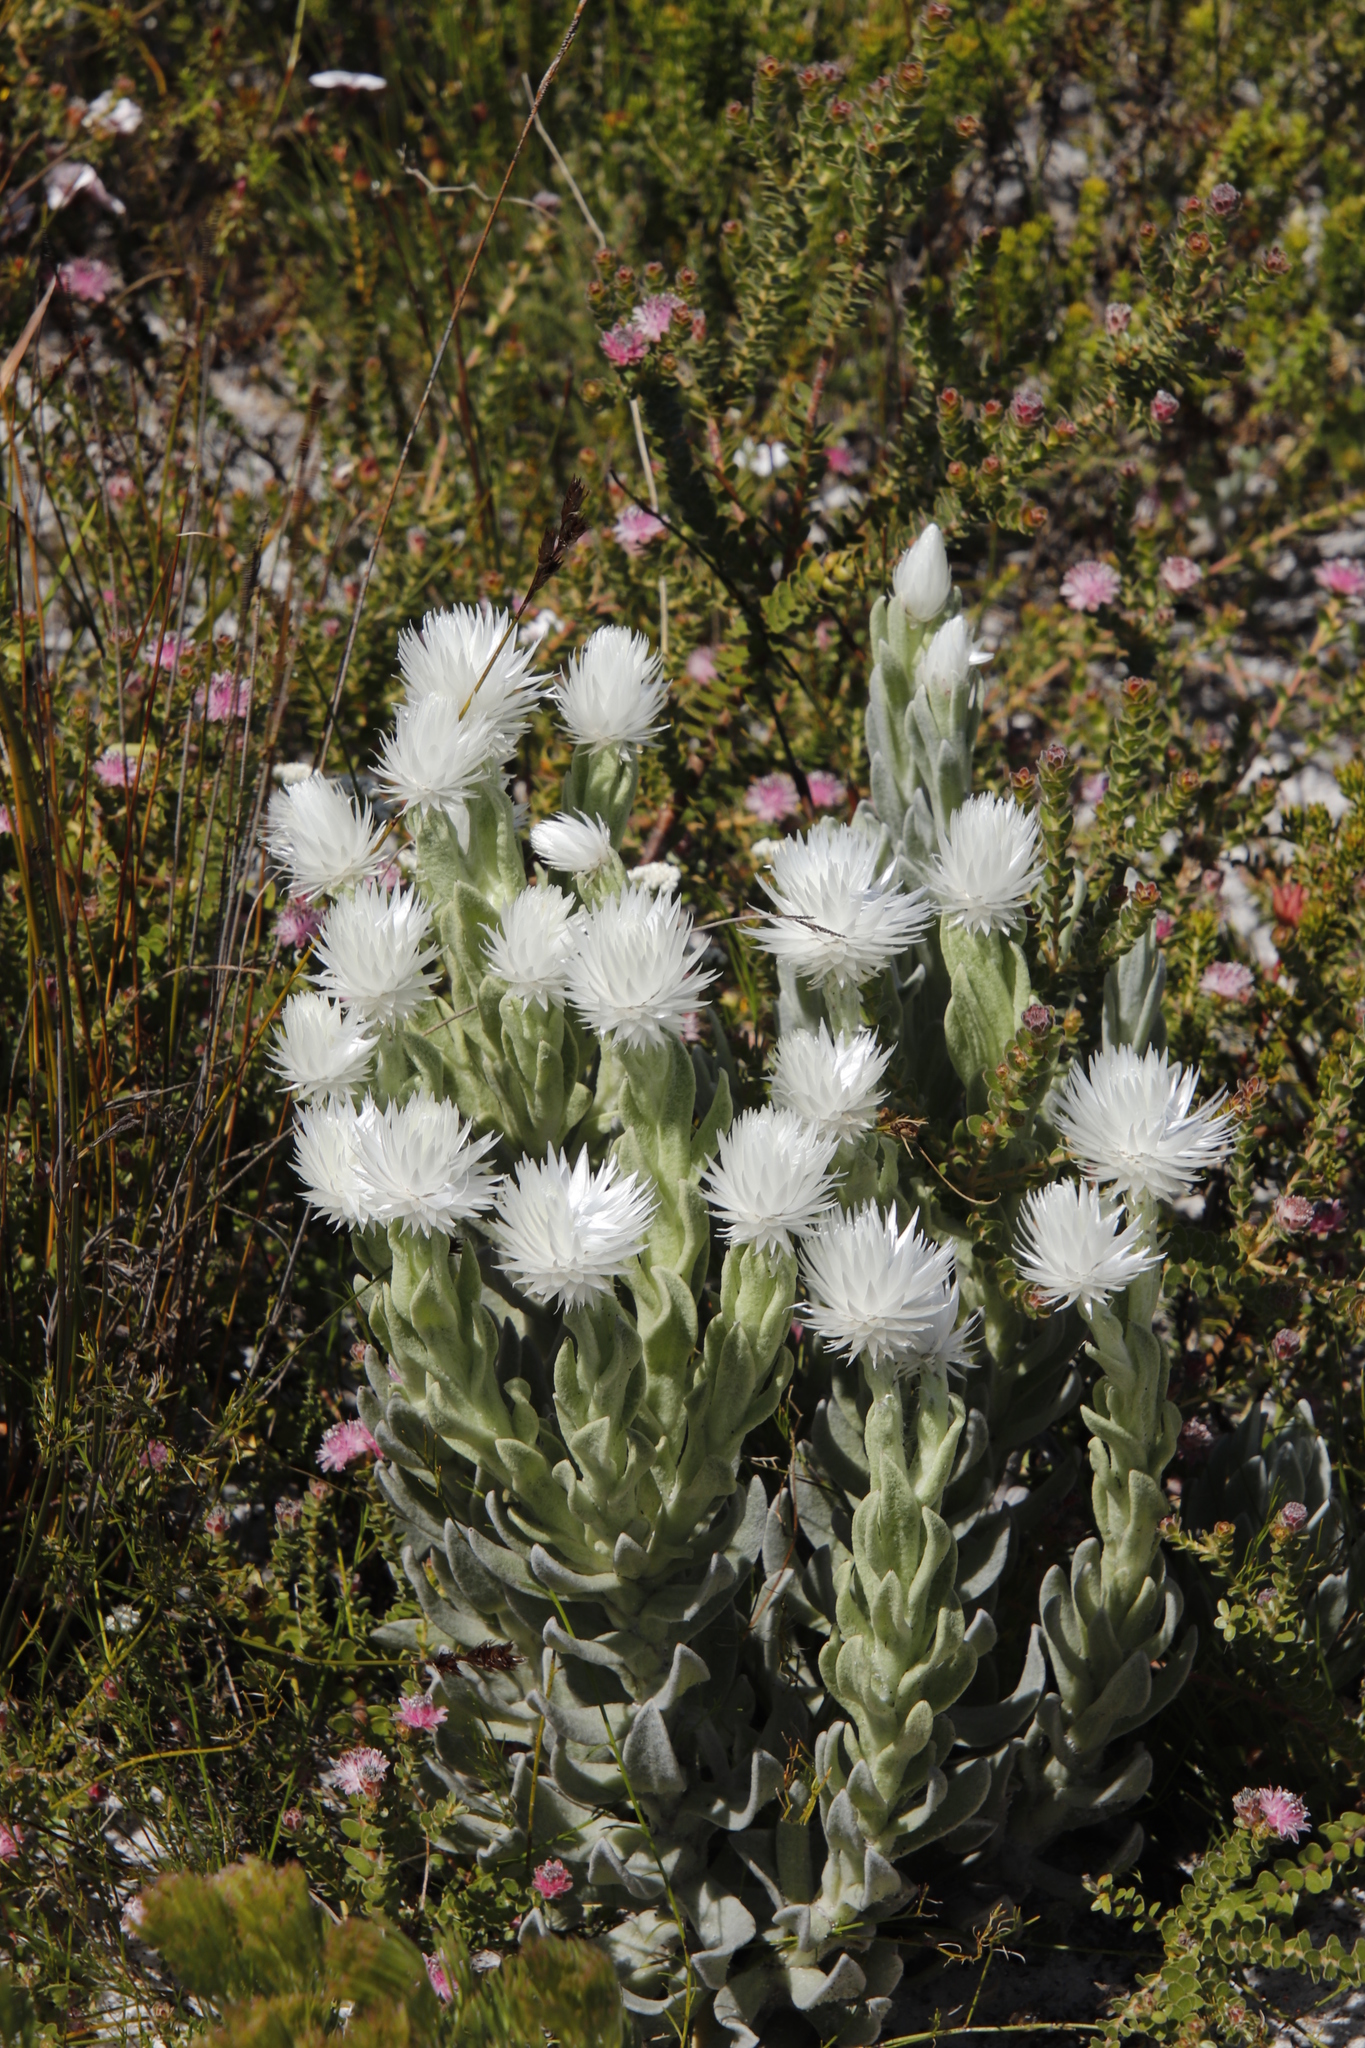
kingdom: Plantae
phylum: Tracheophyta
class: Magnoliopsida
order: Asterales
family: Asteraceae
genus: Syncarpha
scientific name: Syncarpha vestita
